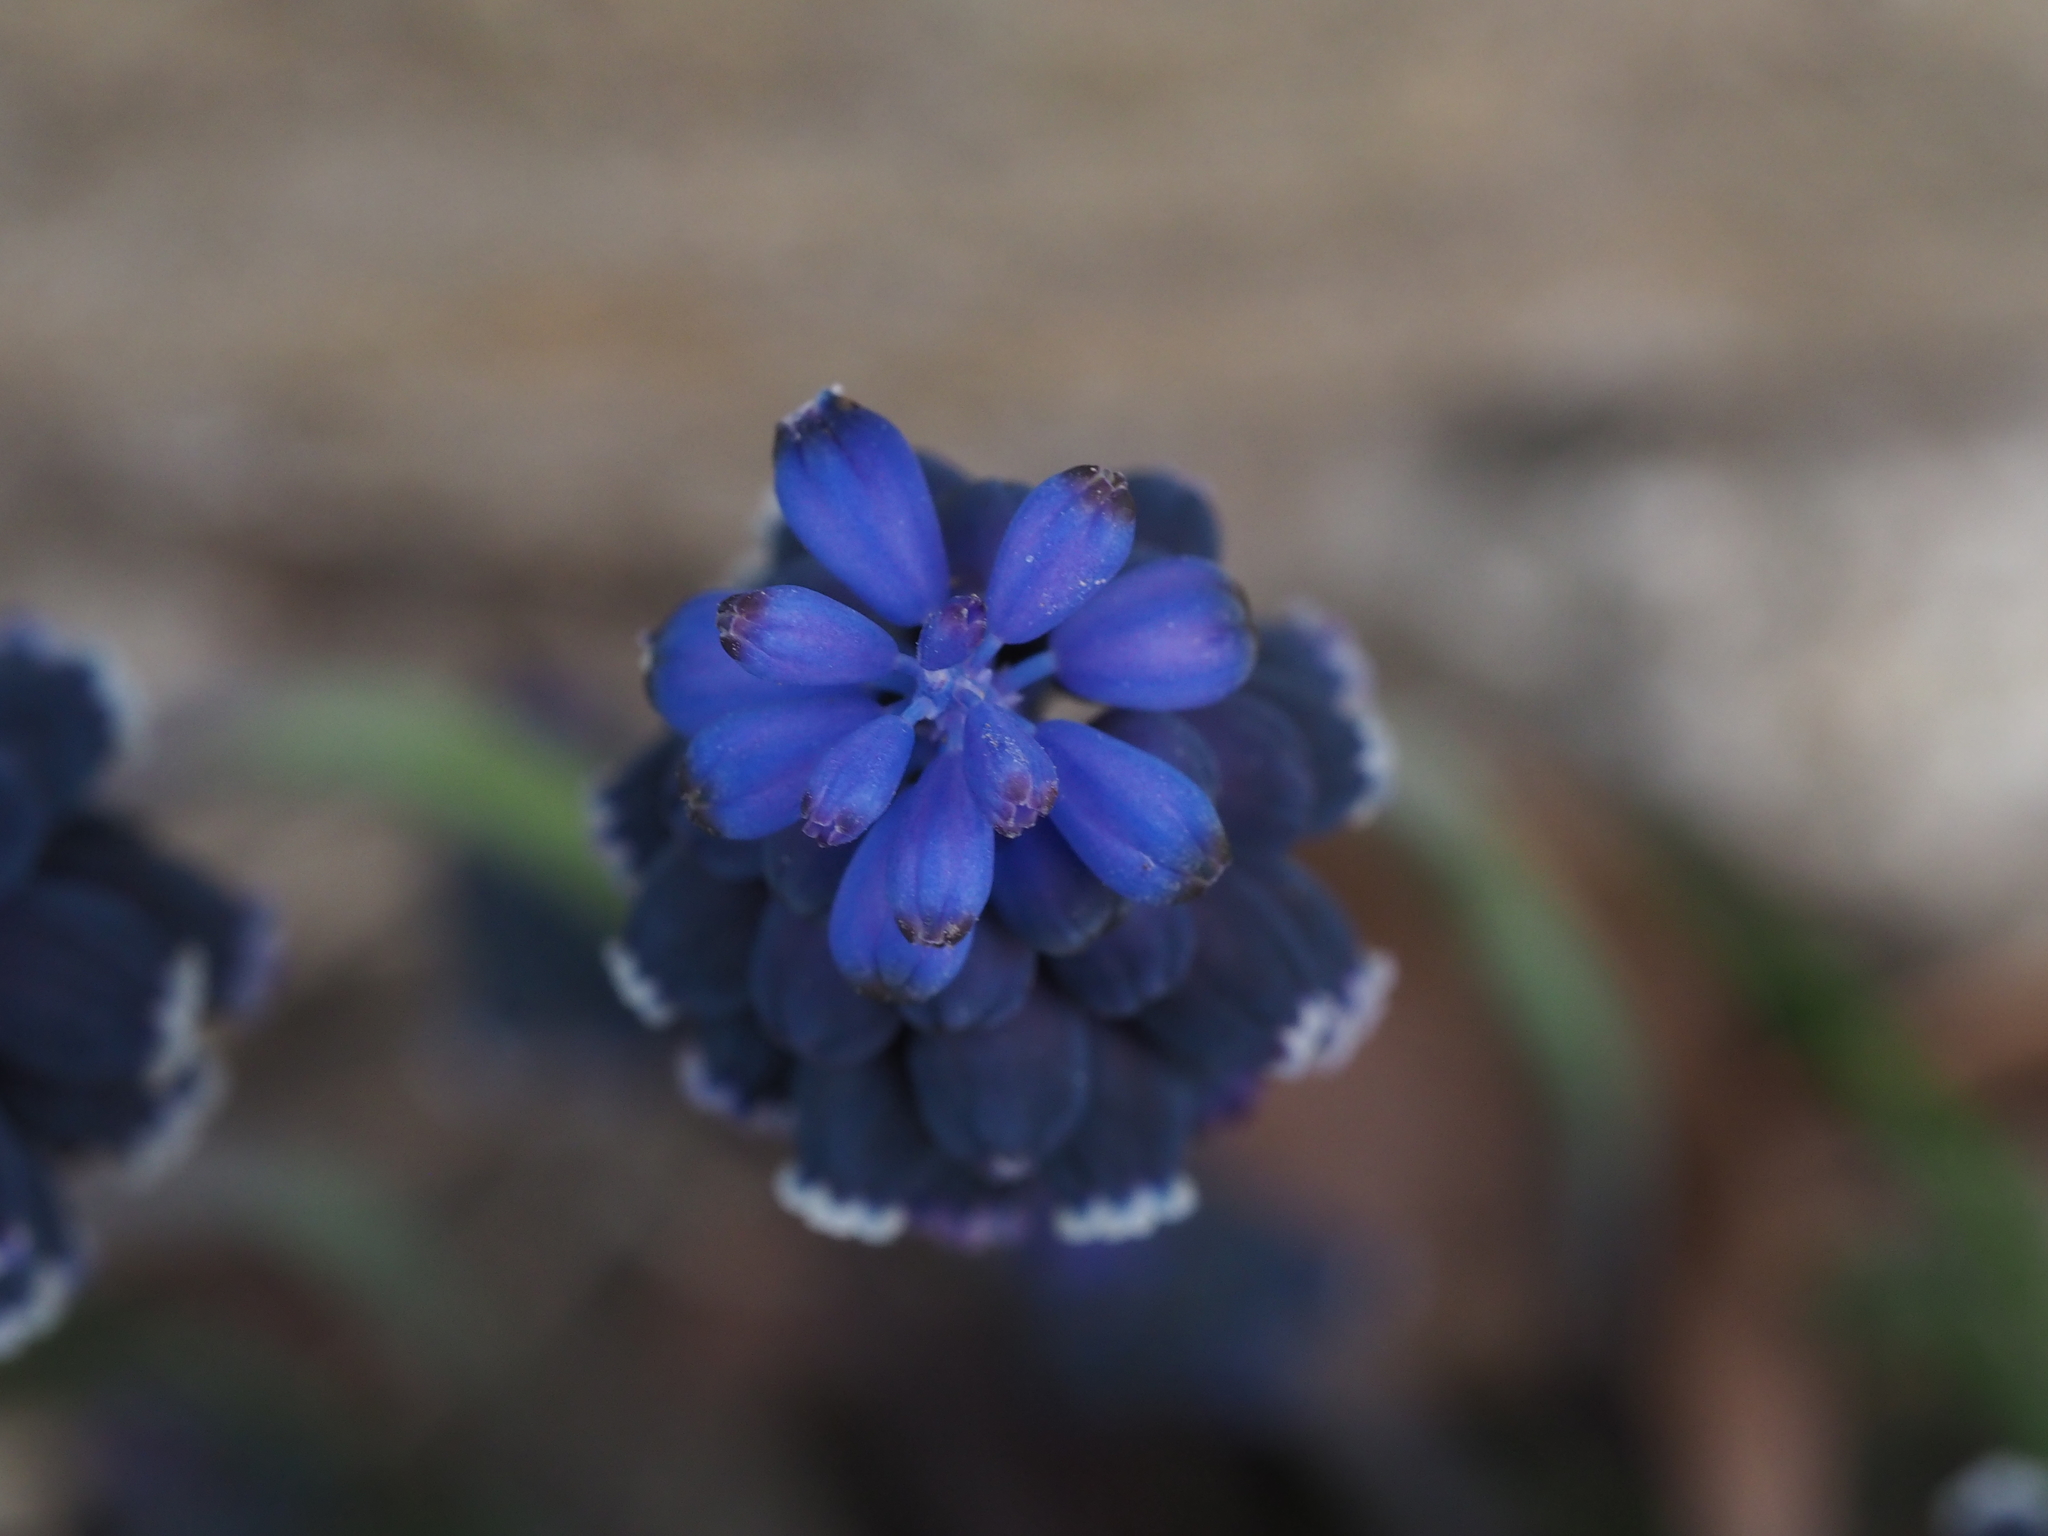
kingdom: Plantae
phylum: Tracheophyta
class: Liliopsida
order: Asparagales
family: Asparagaceae
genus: Muscari
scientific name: Muscari neglectum
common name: Grape-hyacinth
